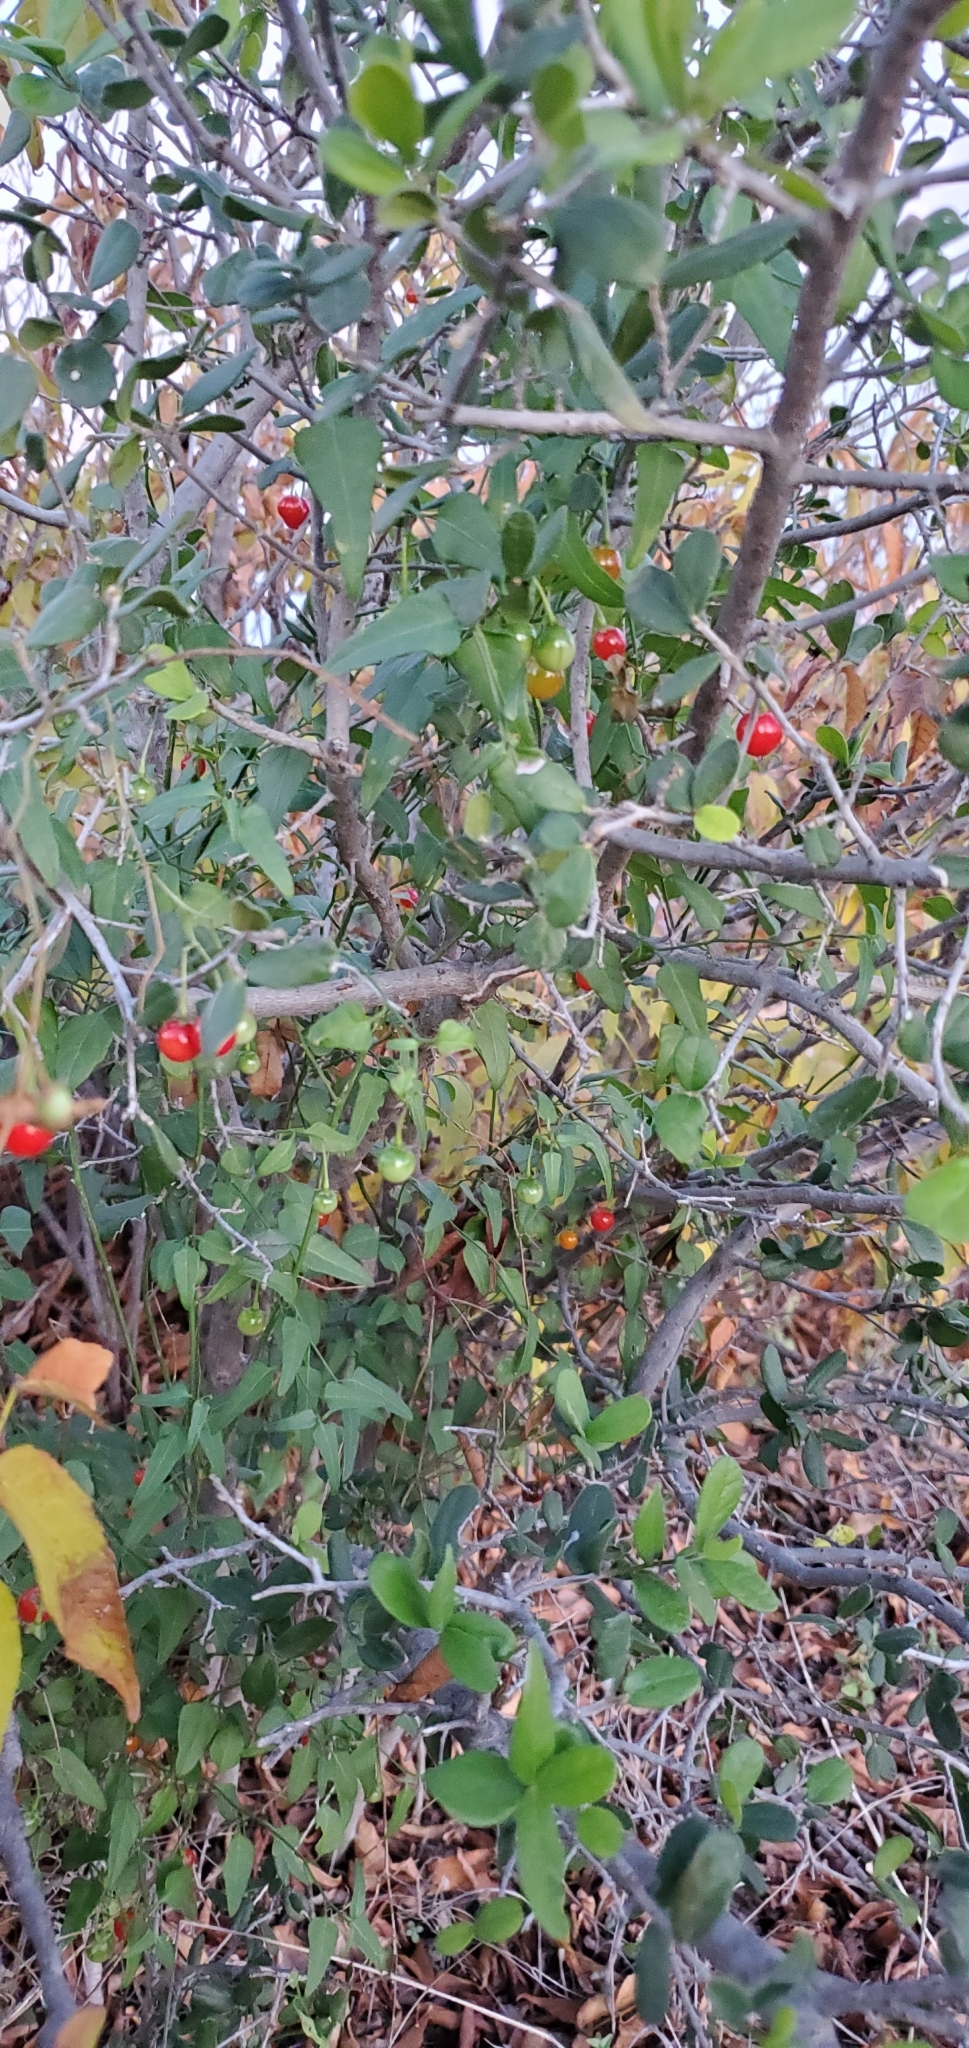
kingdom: Plantae
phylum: Tracheophyta
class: Magnoliopsida
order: Solanales
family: Solanaceae
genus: Solanum
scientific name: Solanum triquetrum
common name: Texas nightshade
